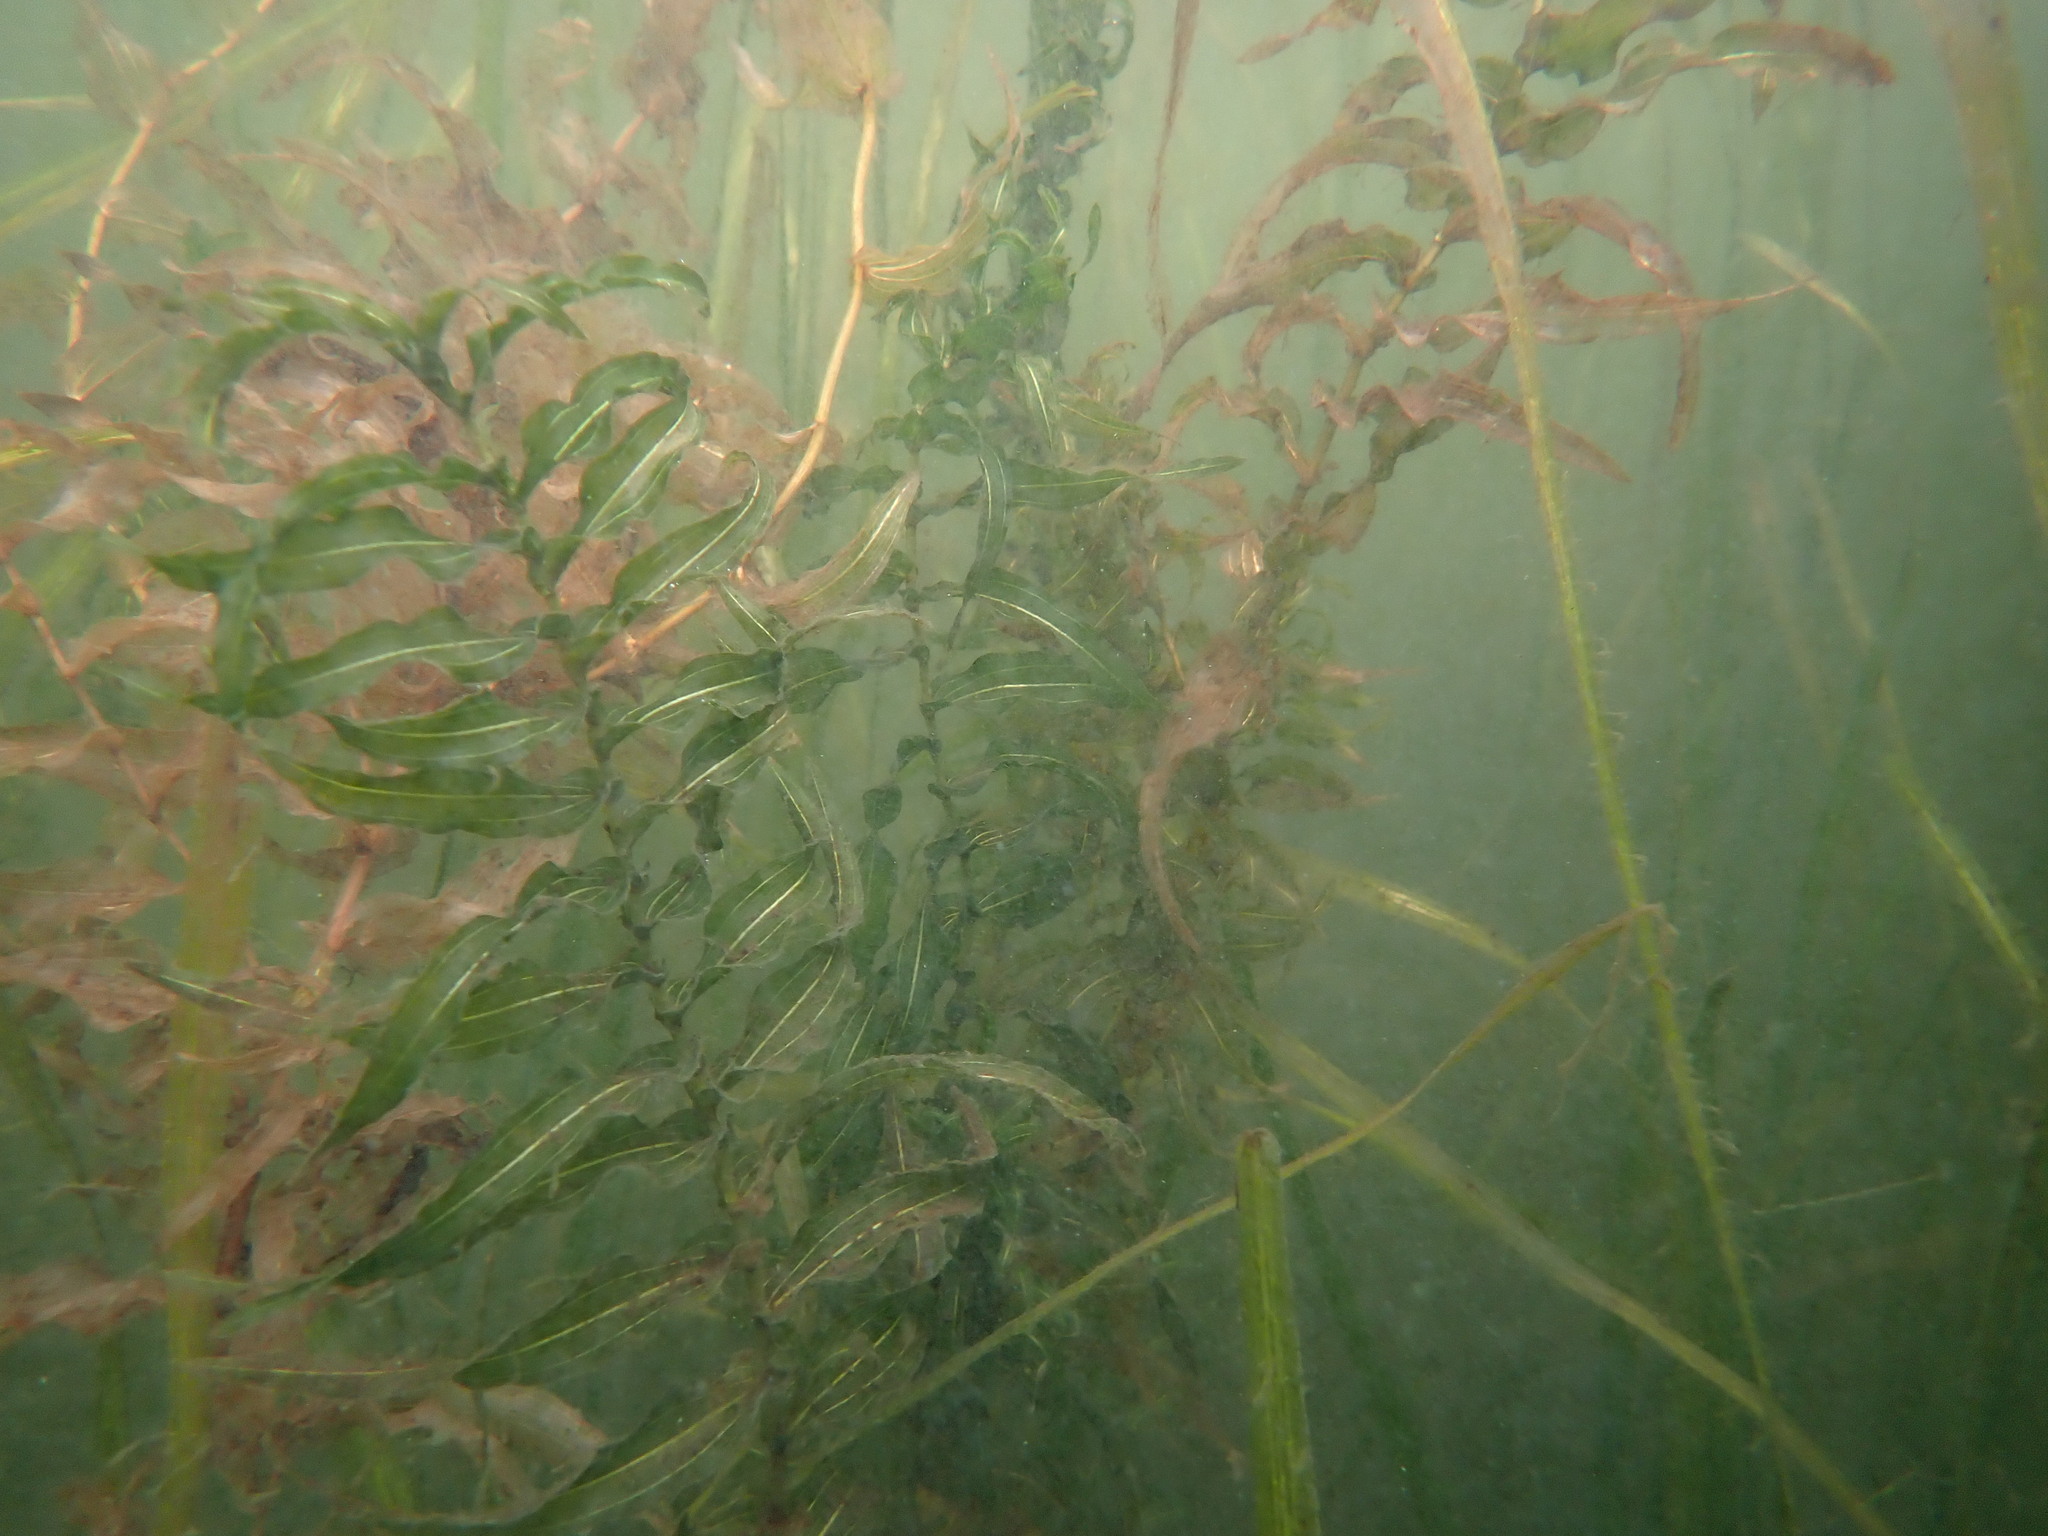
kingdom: Plantae
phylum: Tracheophyta
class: Liliopsida
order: Alismatales
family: Potamogetonaceae
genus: Potamogeton
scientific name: Potamogeton richardsonii
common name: Richardson's pondweed
